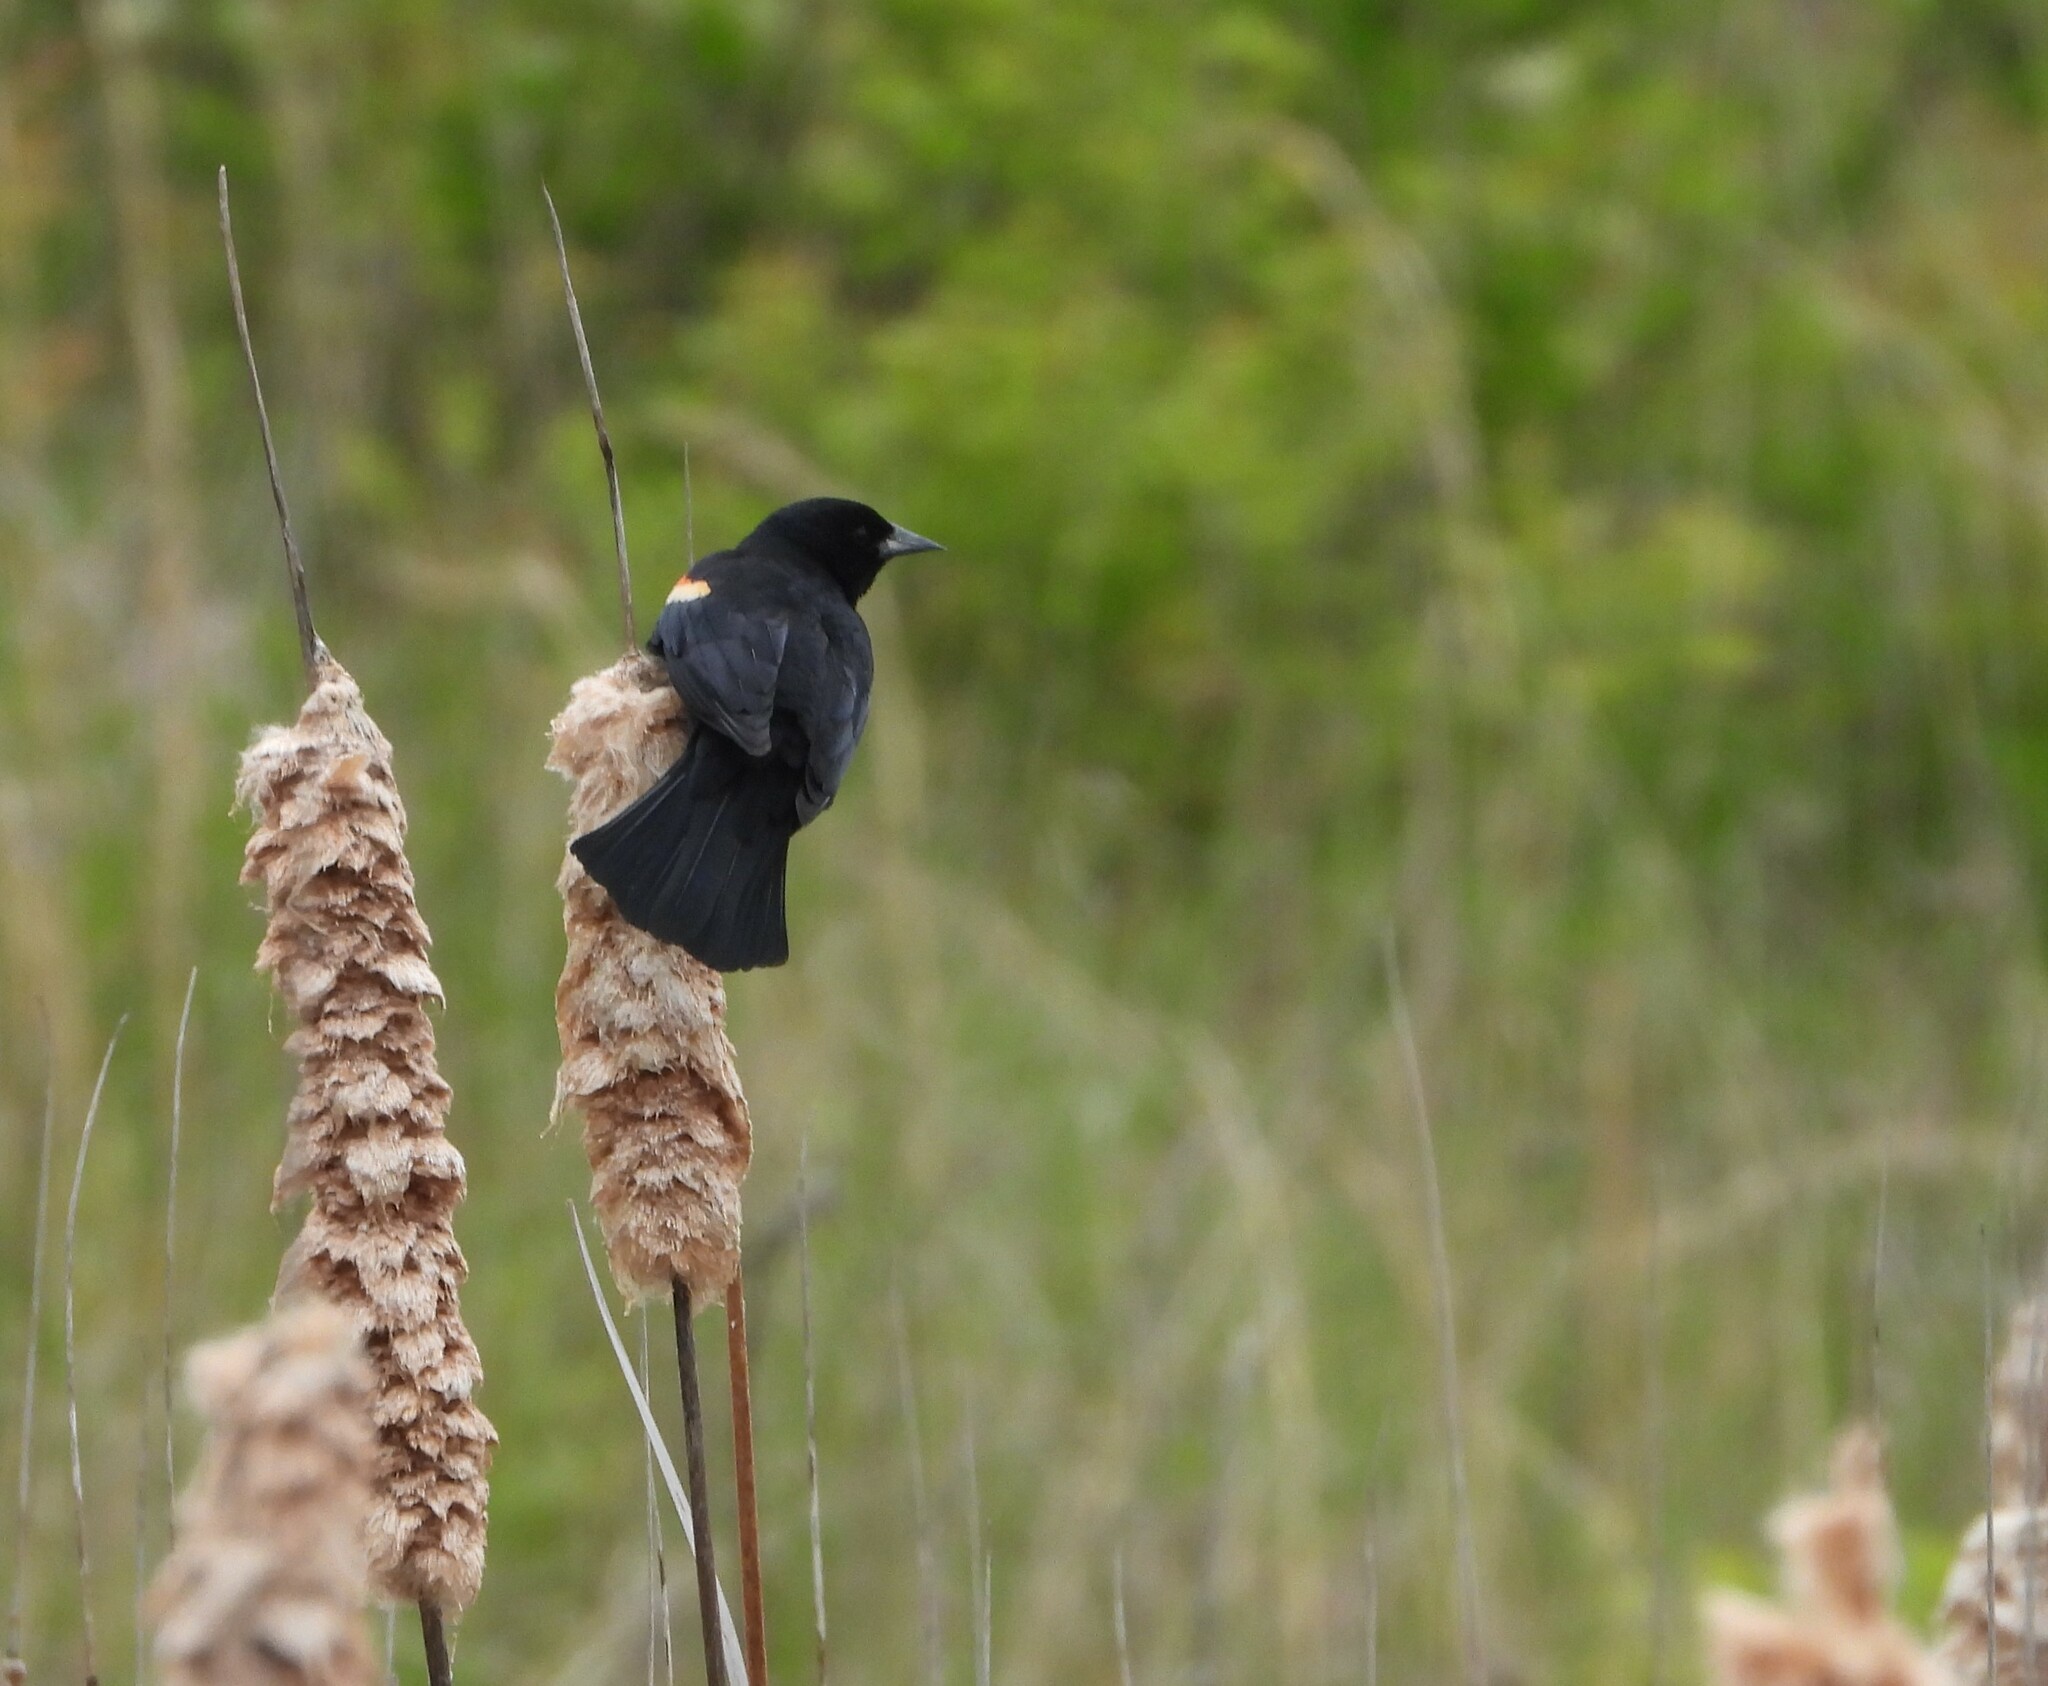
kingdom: Animalia
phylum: Chordata
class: Aves
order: Passeriformes
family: Icteridae
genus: Agelaius
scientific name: Agelaius phoeniceus
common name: Red-winged blackbird
